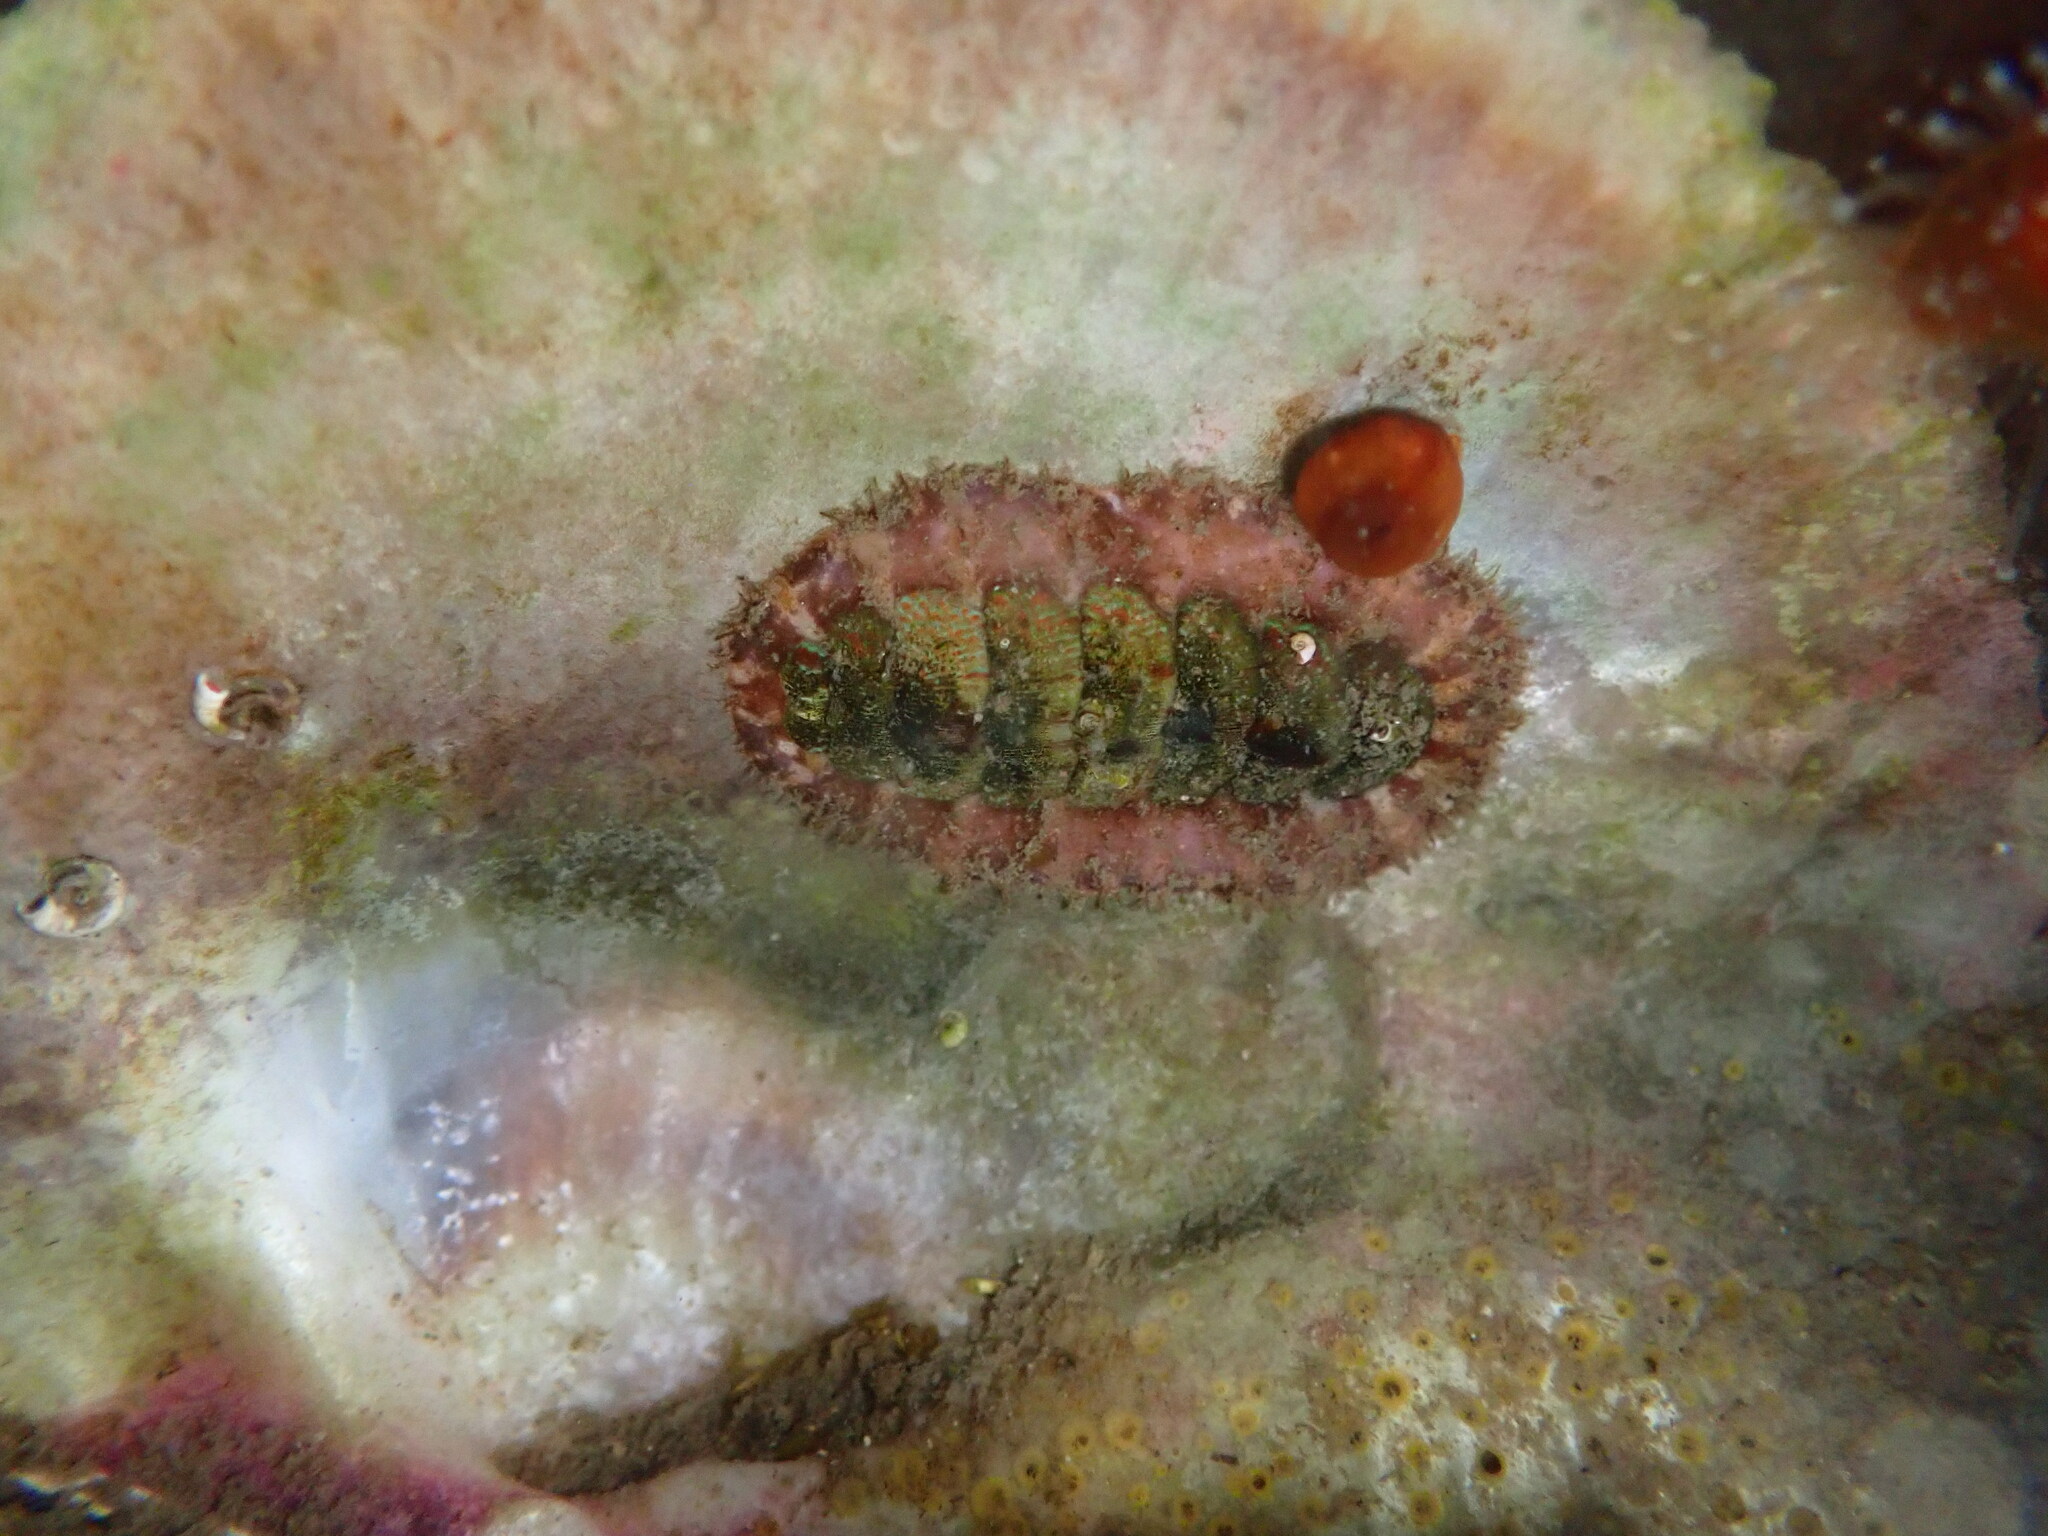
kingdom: Animalia
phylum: Mollusca
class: Polyplacophora
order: Chitonida
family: Mopaliidae
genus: Mopalia
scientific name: Mopalia spectabilis
